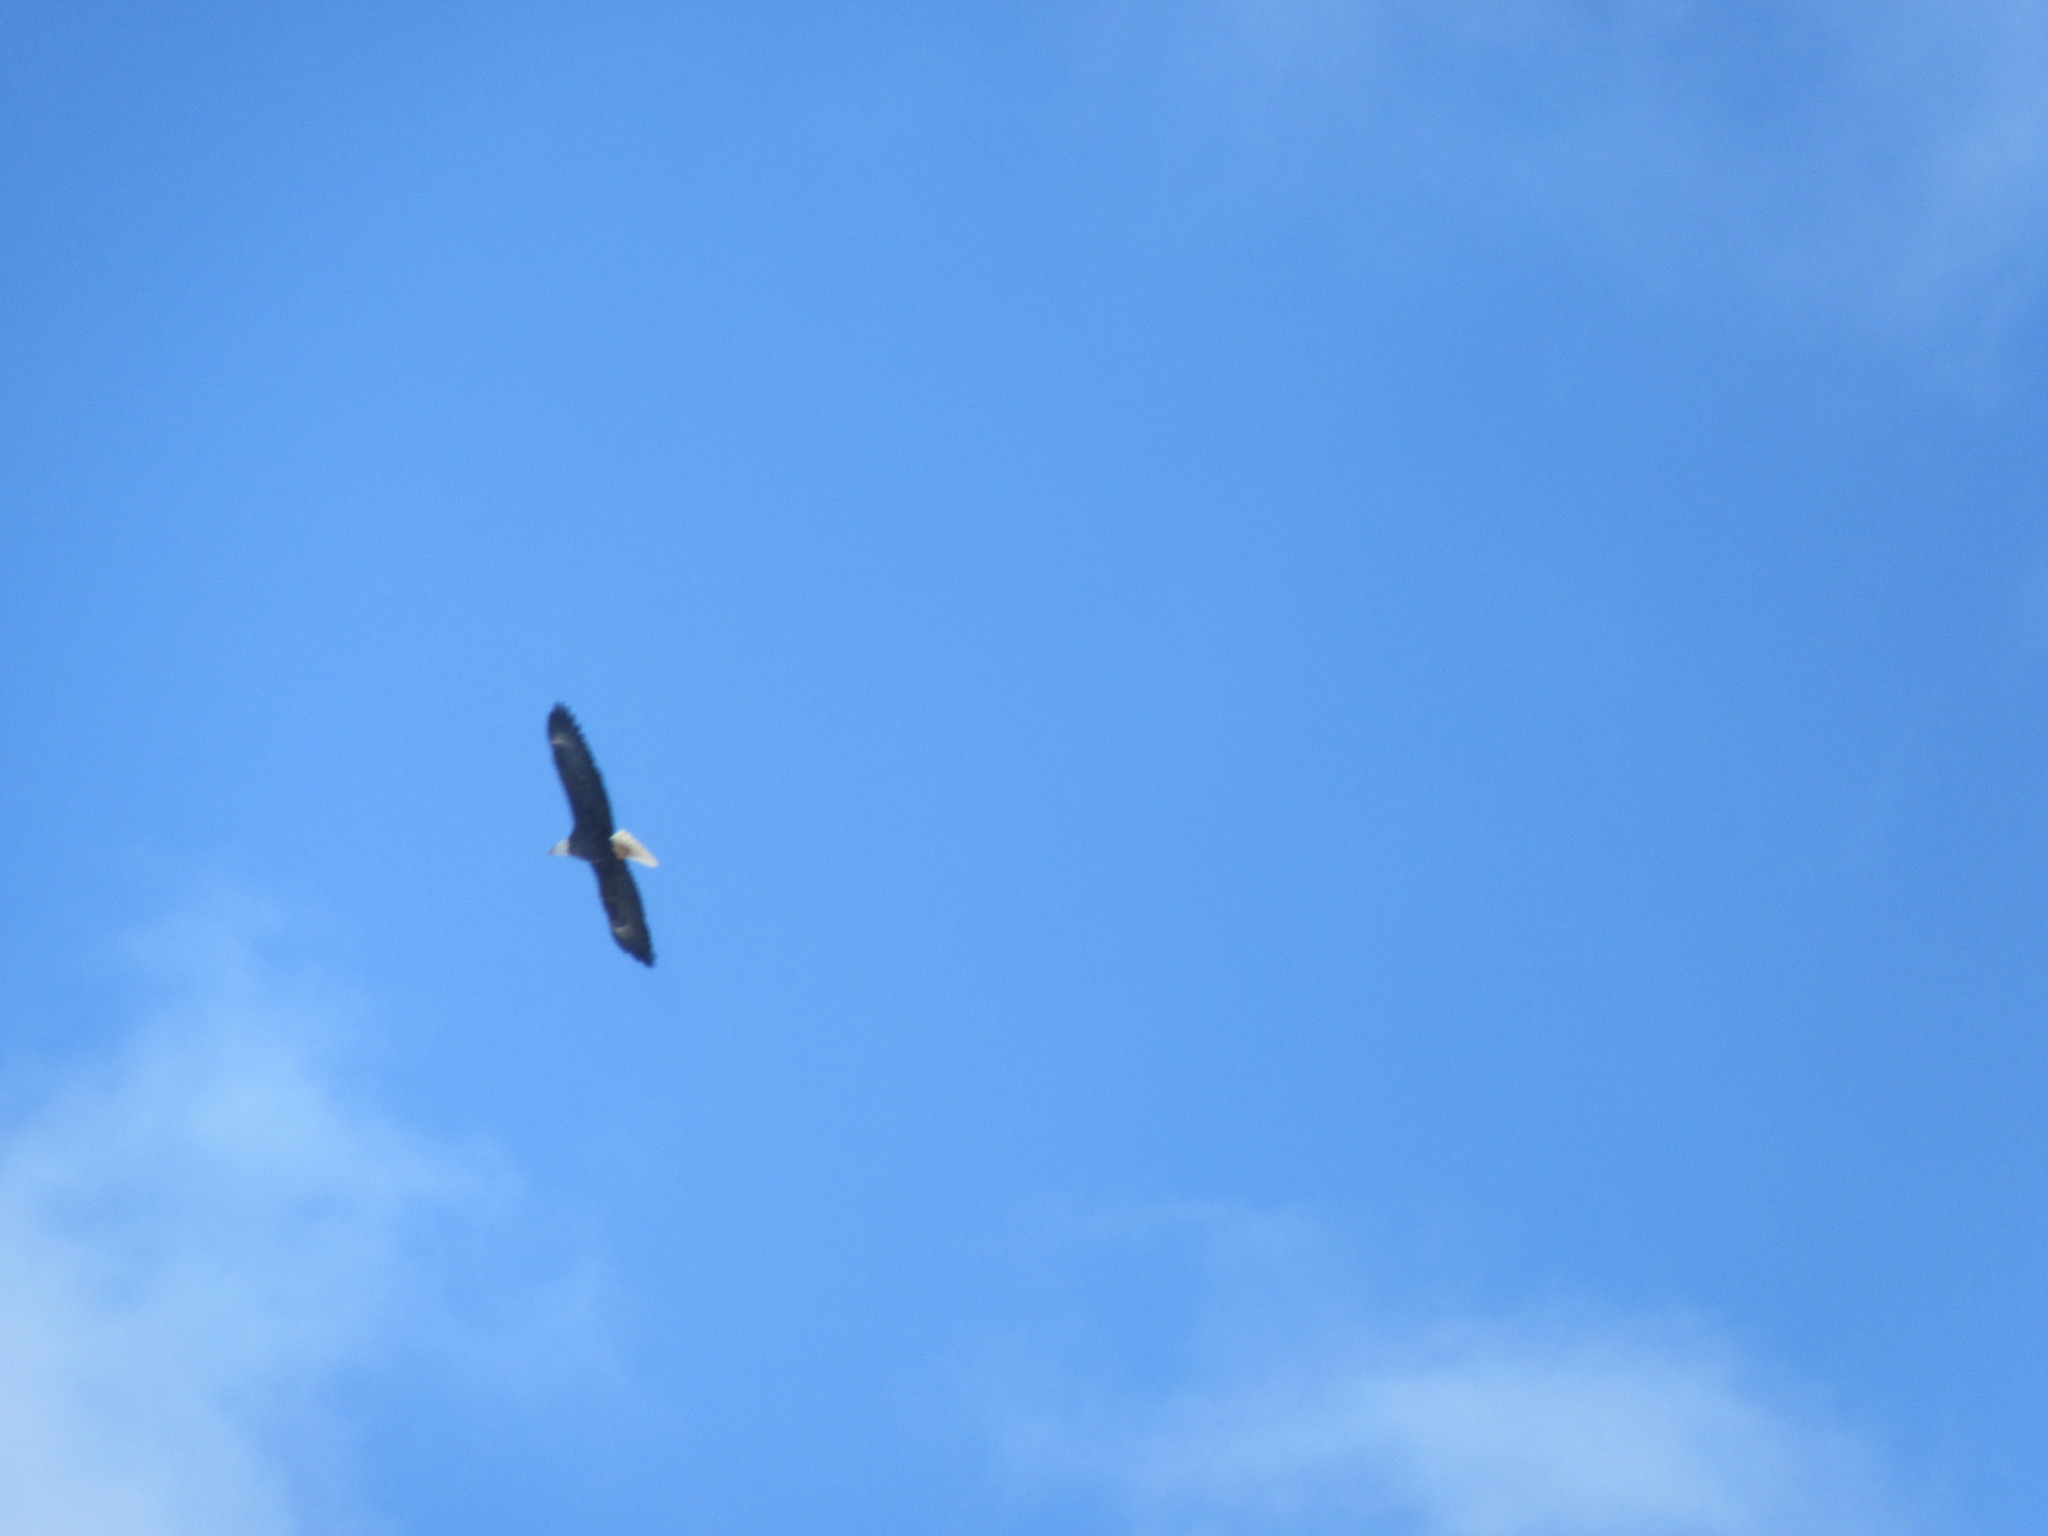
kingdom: Animalia
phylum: Chordata
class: Aves
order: Accipitriformes
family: Accipitridae
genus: Haliaeetus
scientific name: Haliaeetus leucocephalus
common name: Bald eagle
